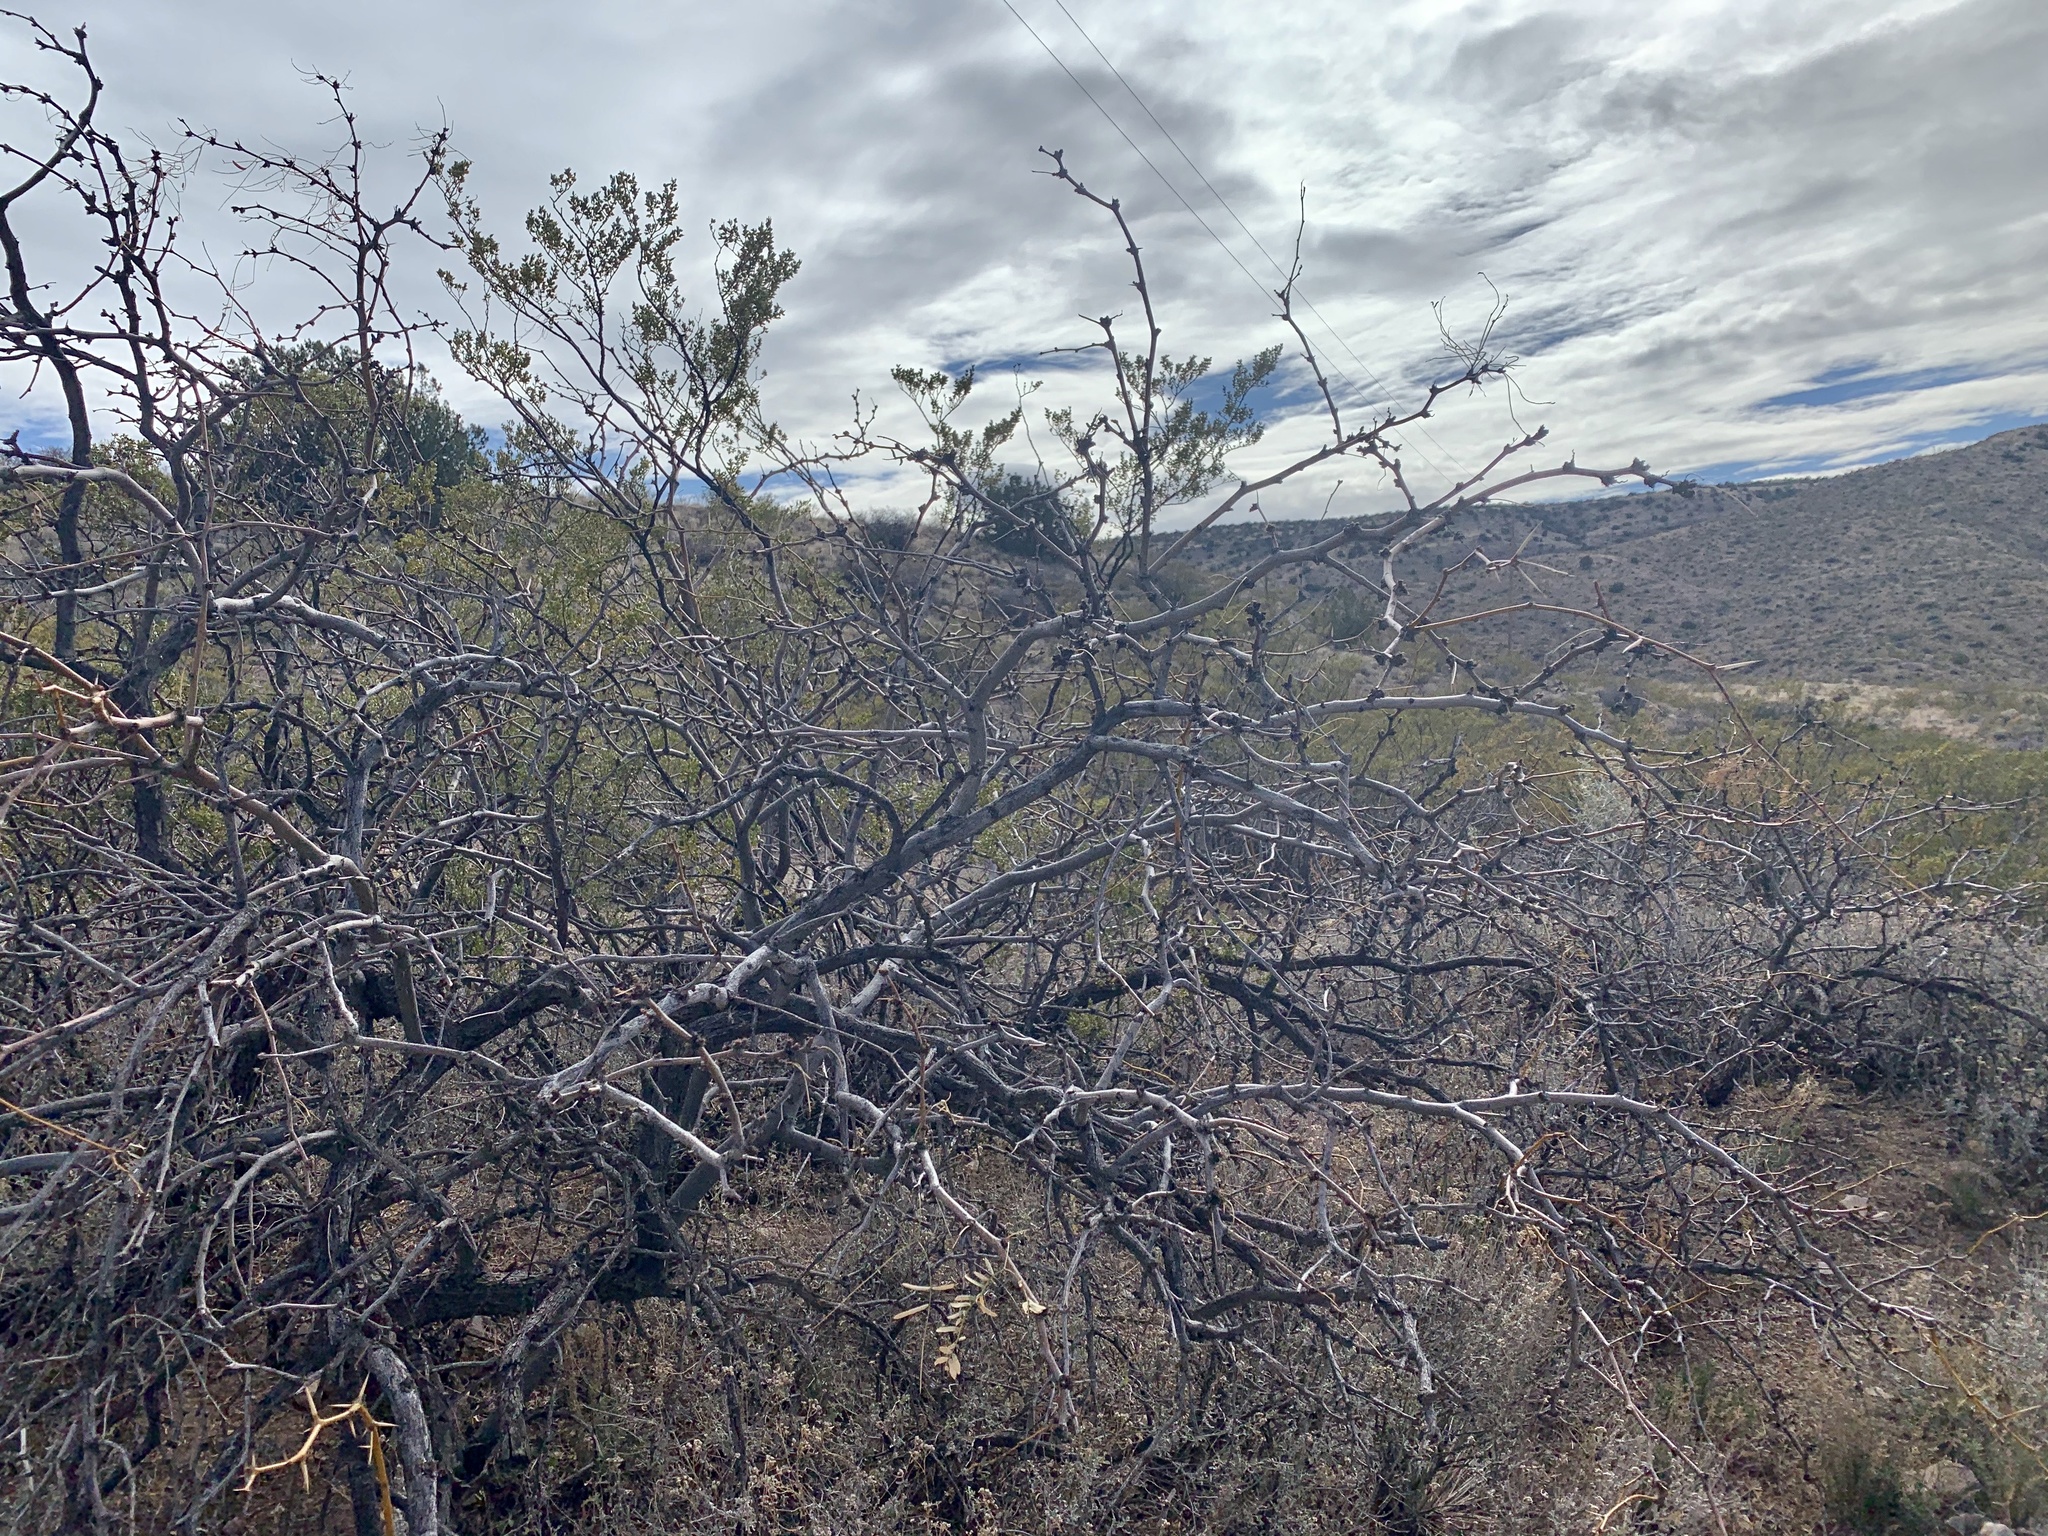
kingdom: Plantae
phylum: Tracheophyta
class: Magnoliopsida
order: Fabales
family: Fabaceae
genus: Prosopis
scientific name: Prosopis glandulosa
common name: Honey mesquite
